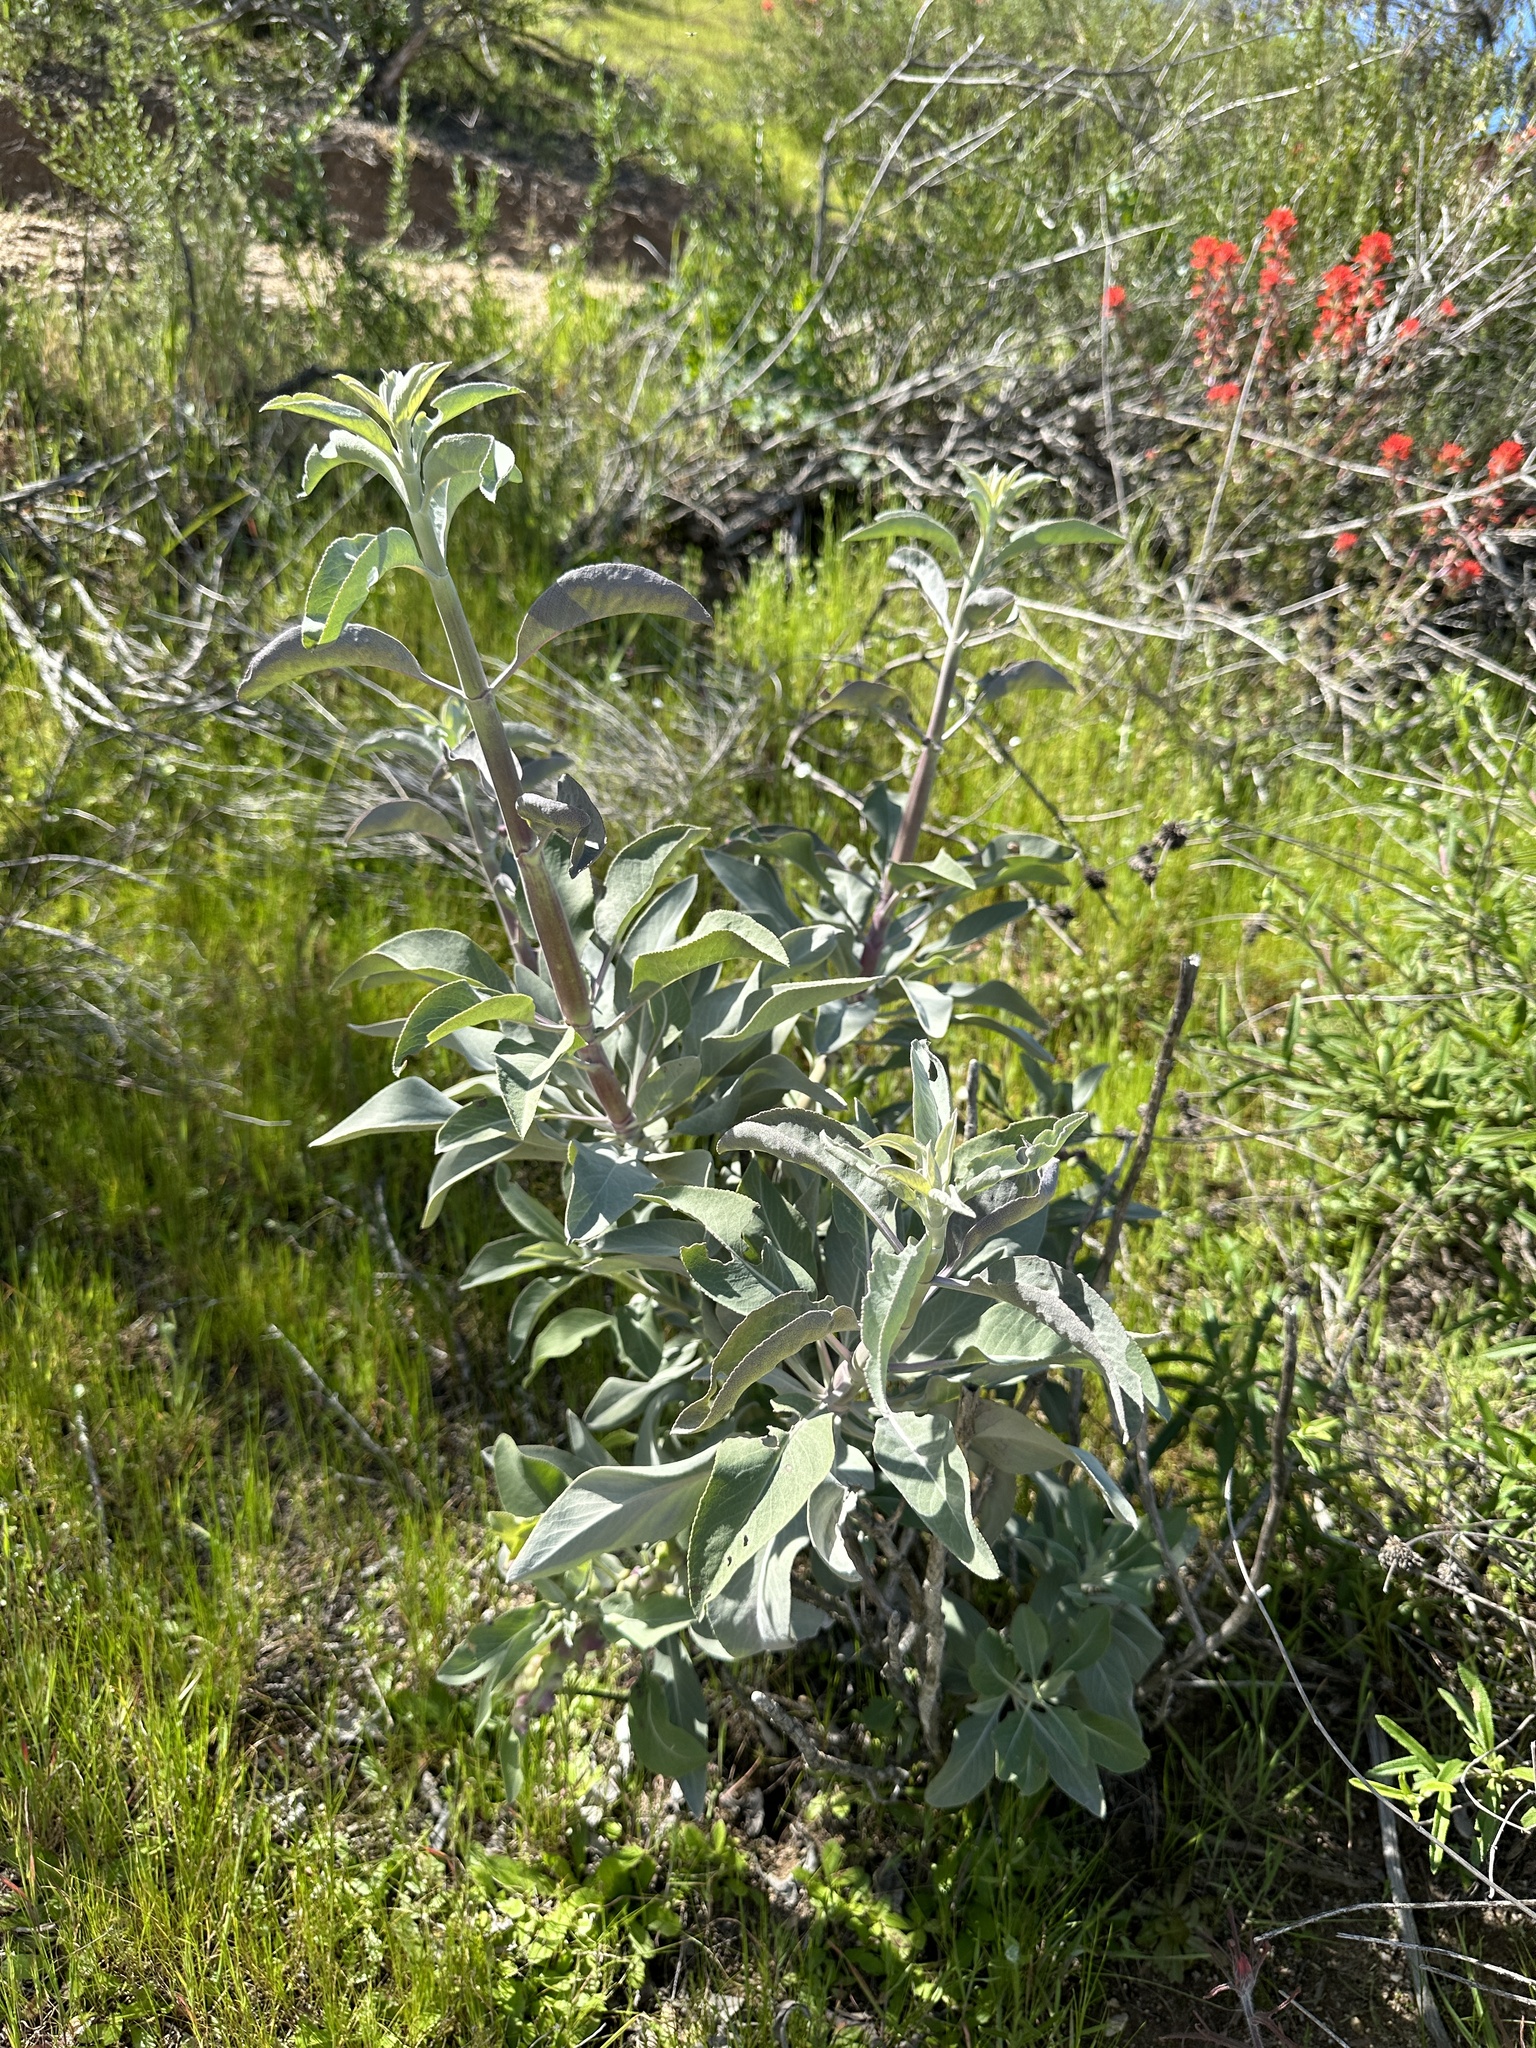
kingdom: Plantae
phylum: Tracheophyta
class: Magnoliopsida
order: Lamiales
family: Lamiaceae
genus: Salvia
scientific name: Salvia apiana
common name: White sage
